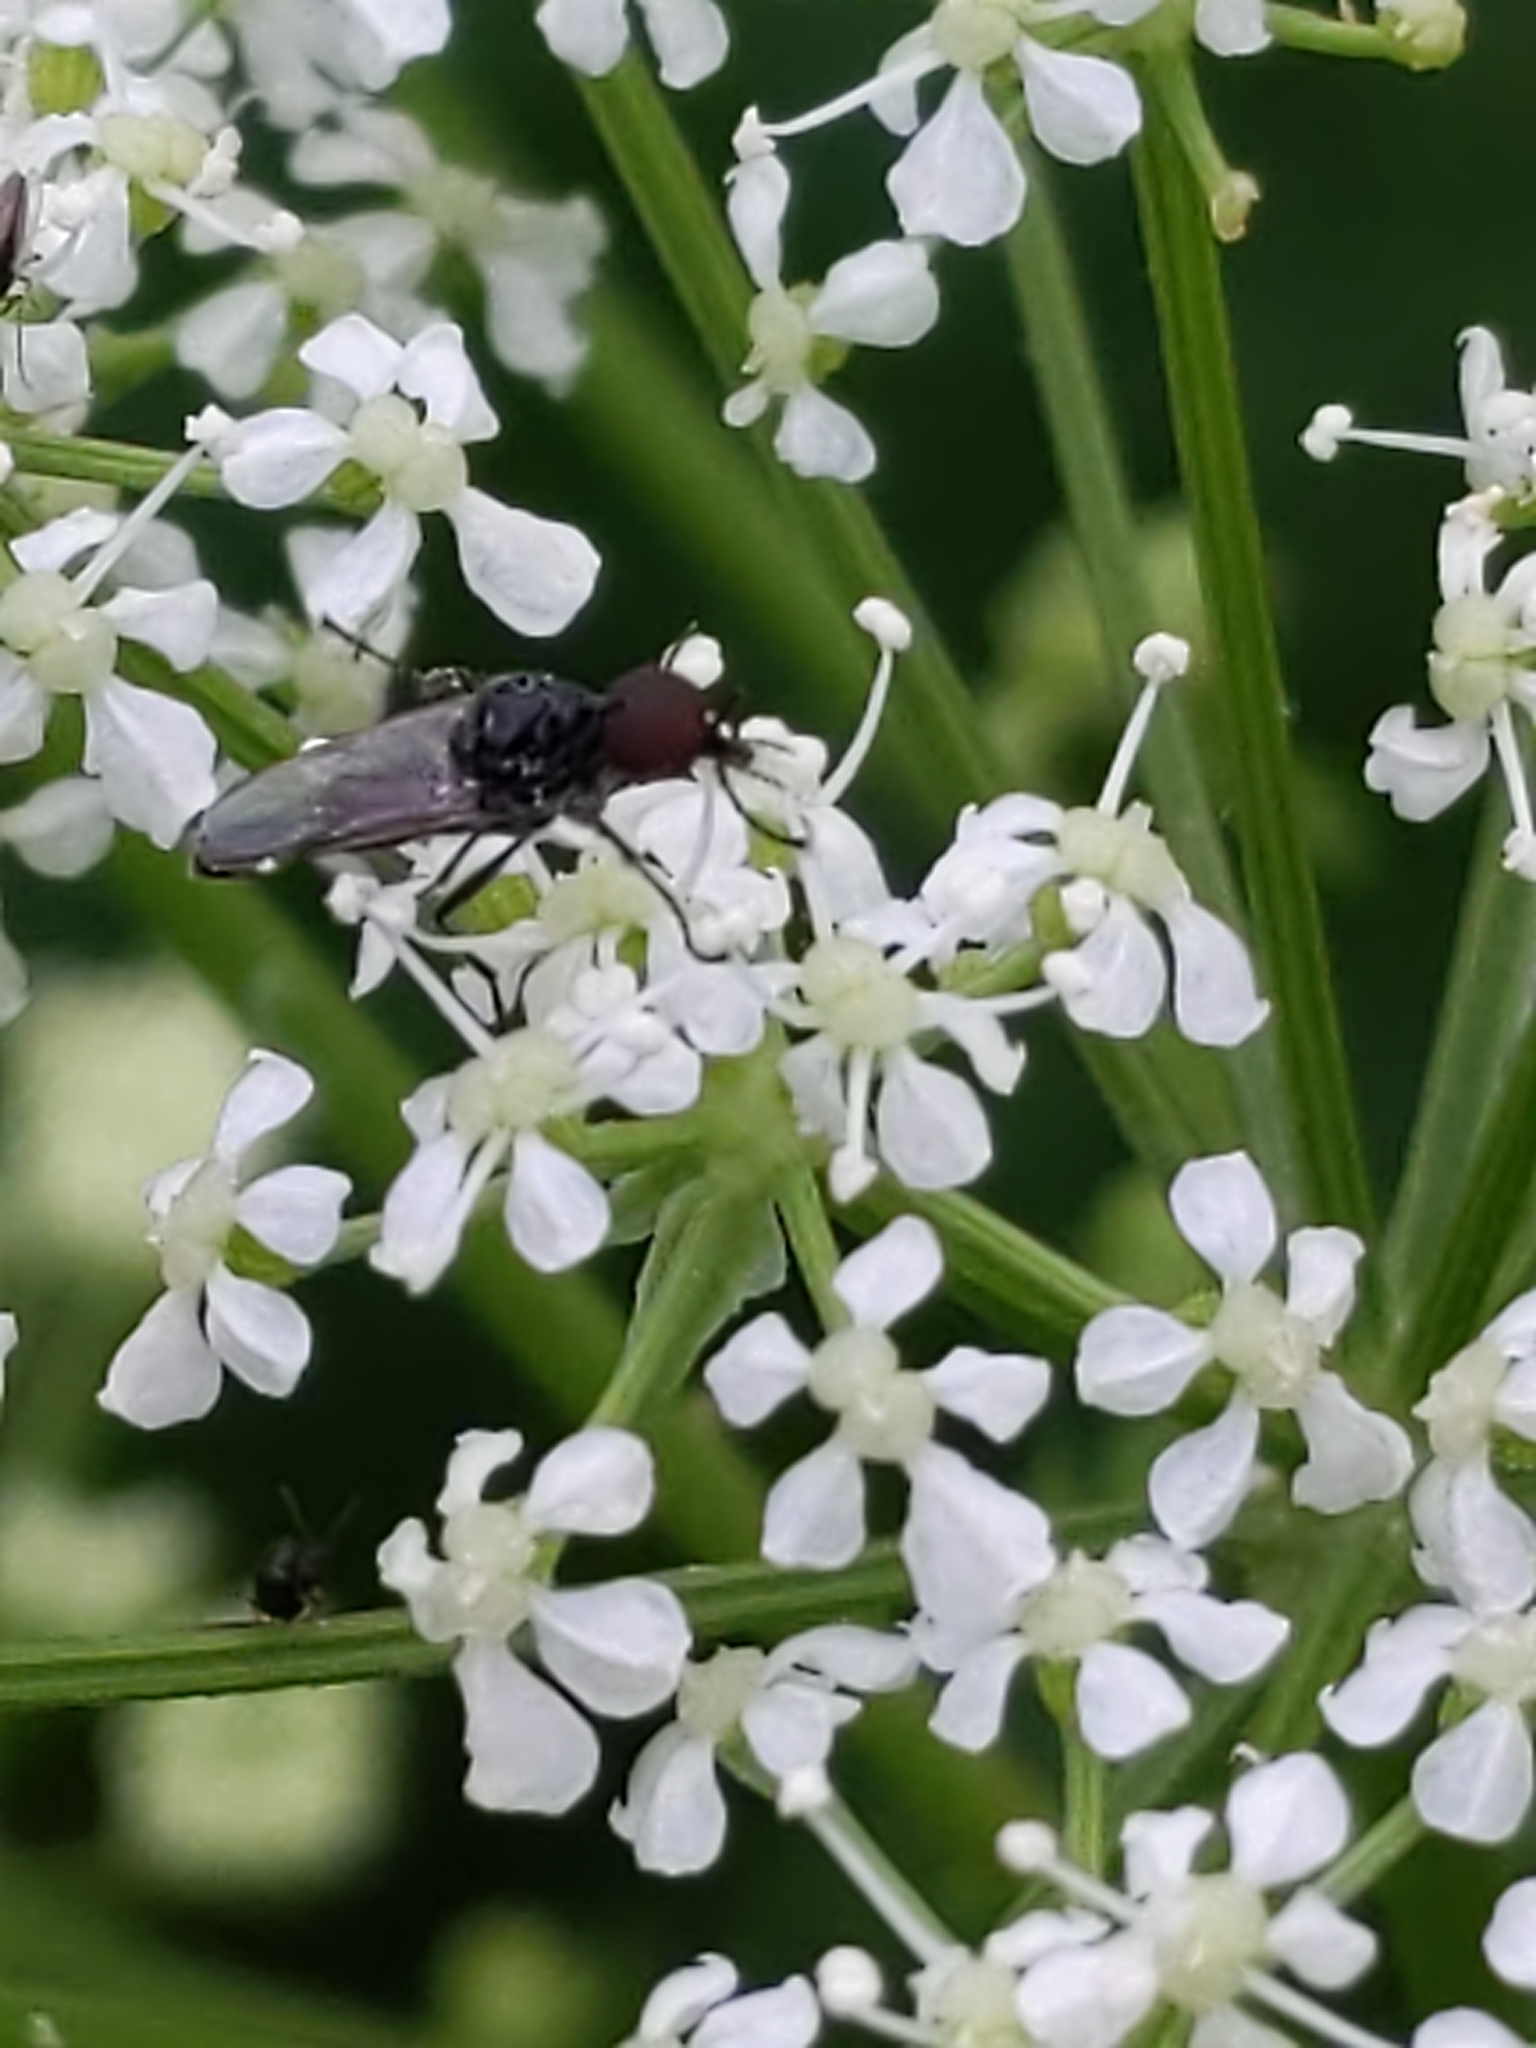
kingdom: Animalia
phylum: Arthropoda
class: Insecta
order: Diptera
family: Bibionidae
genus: Dilophus
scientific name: Dilophus
